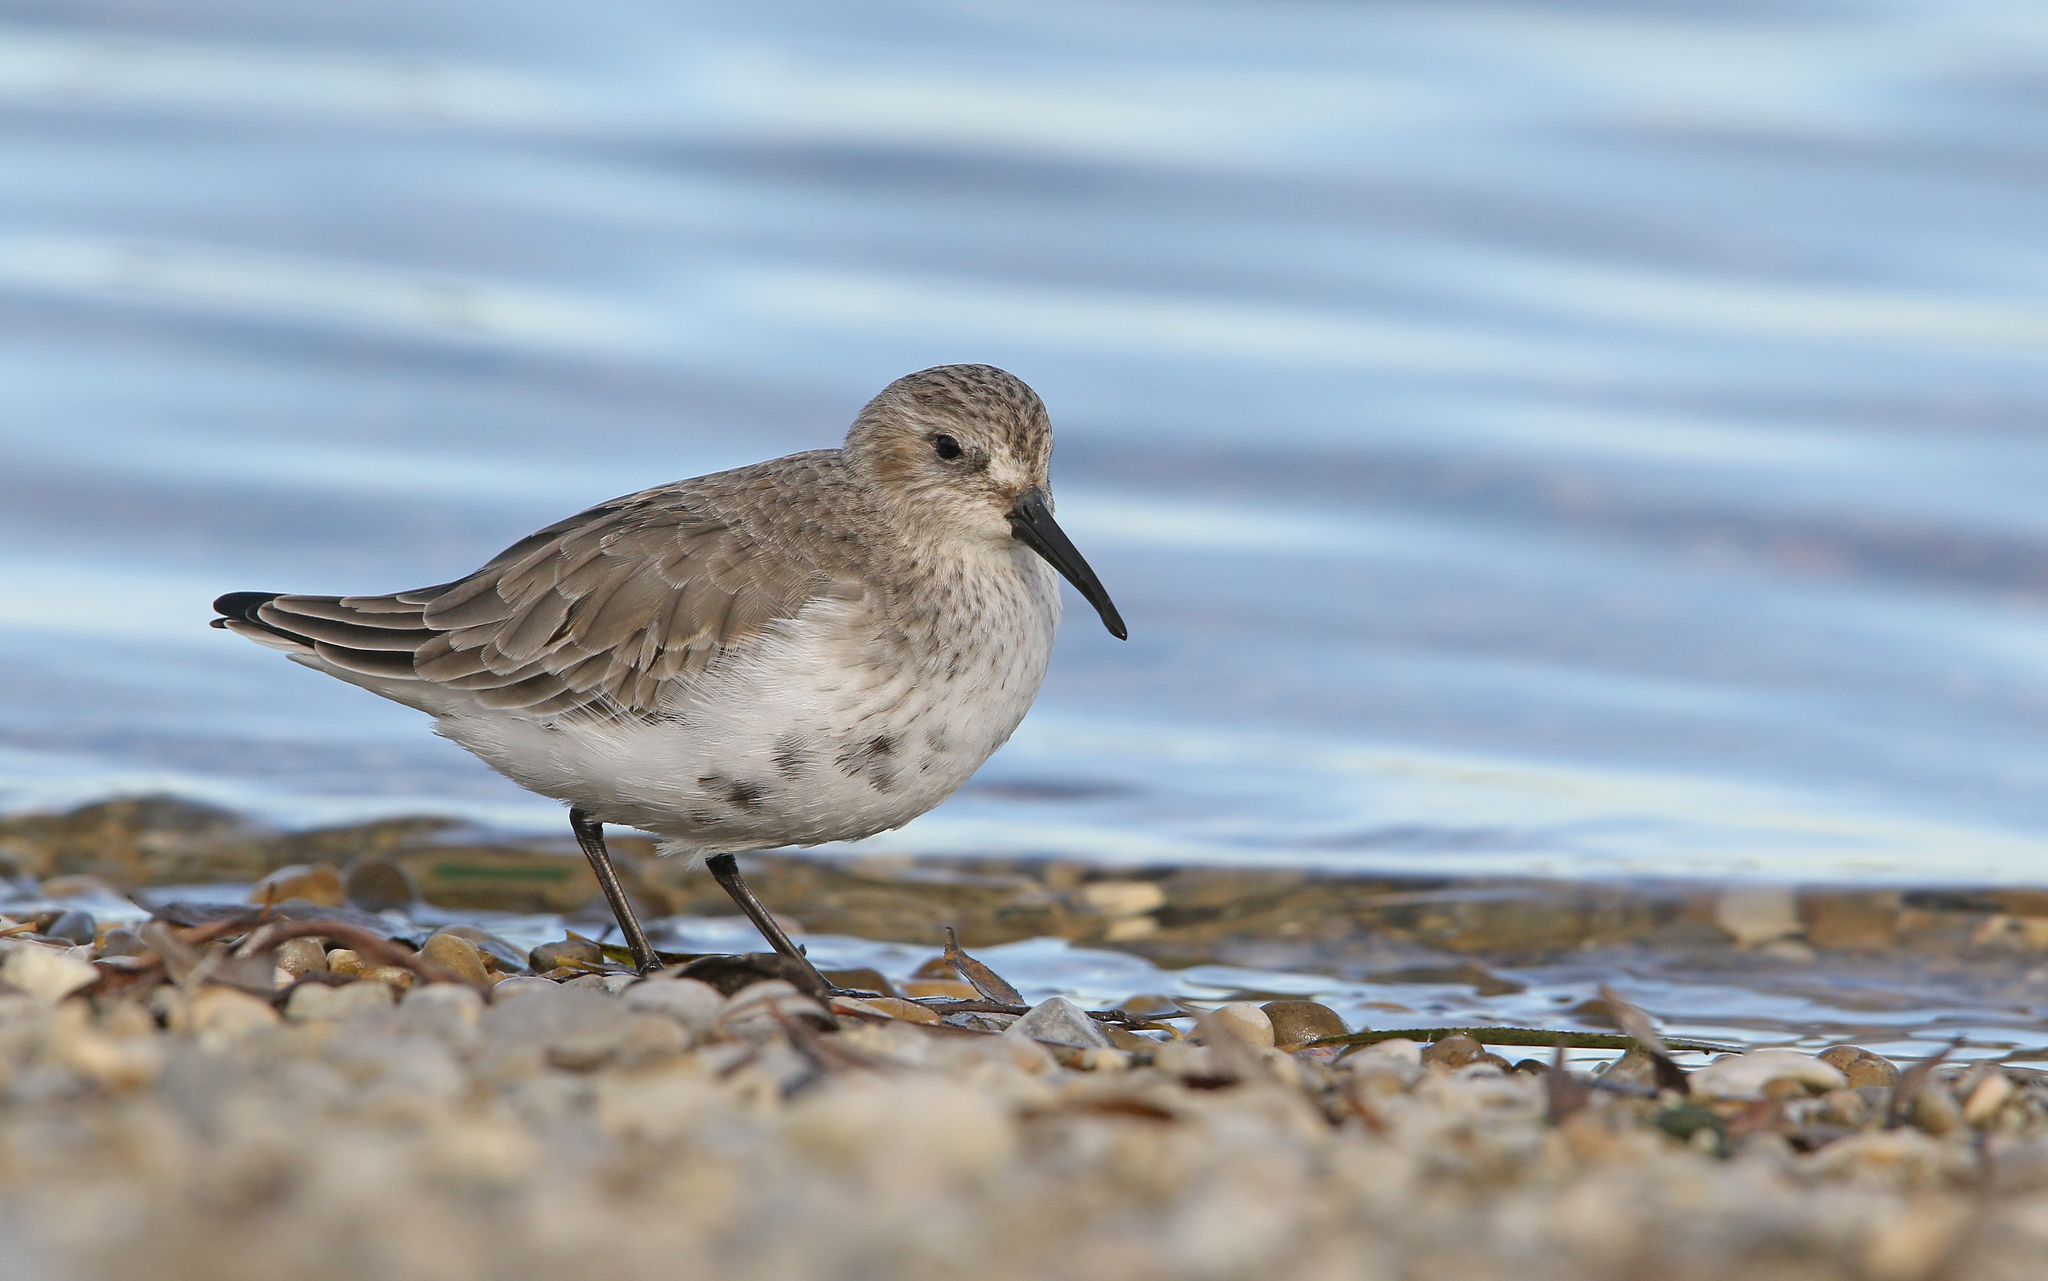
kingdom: Animalia
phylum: Chordata
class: Aves
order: Charadriiformes
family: Scolopacidae
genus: Calidris
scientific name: Calidris alpina
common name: Dunlin
